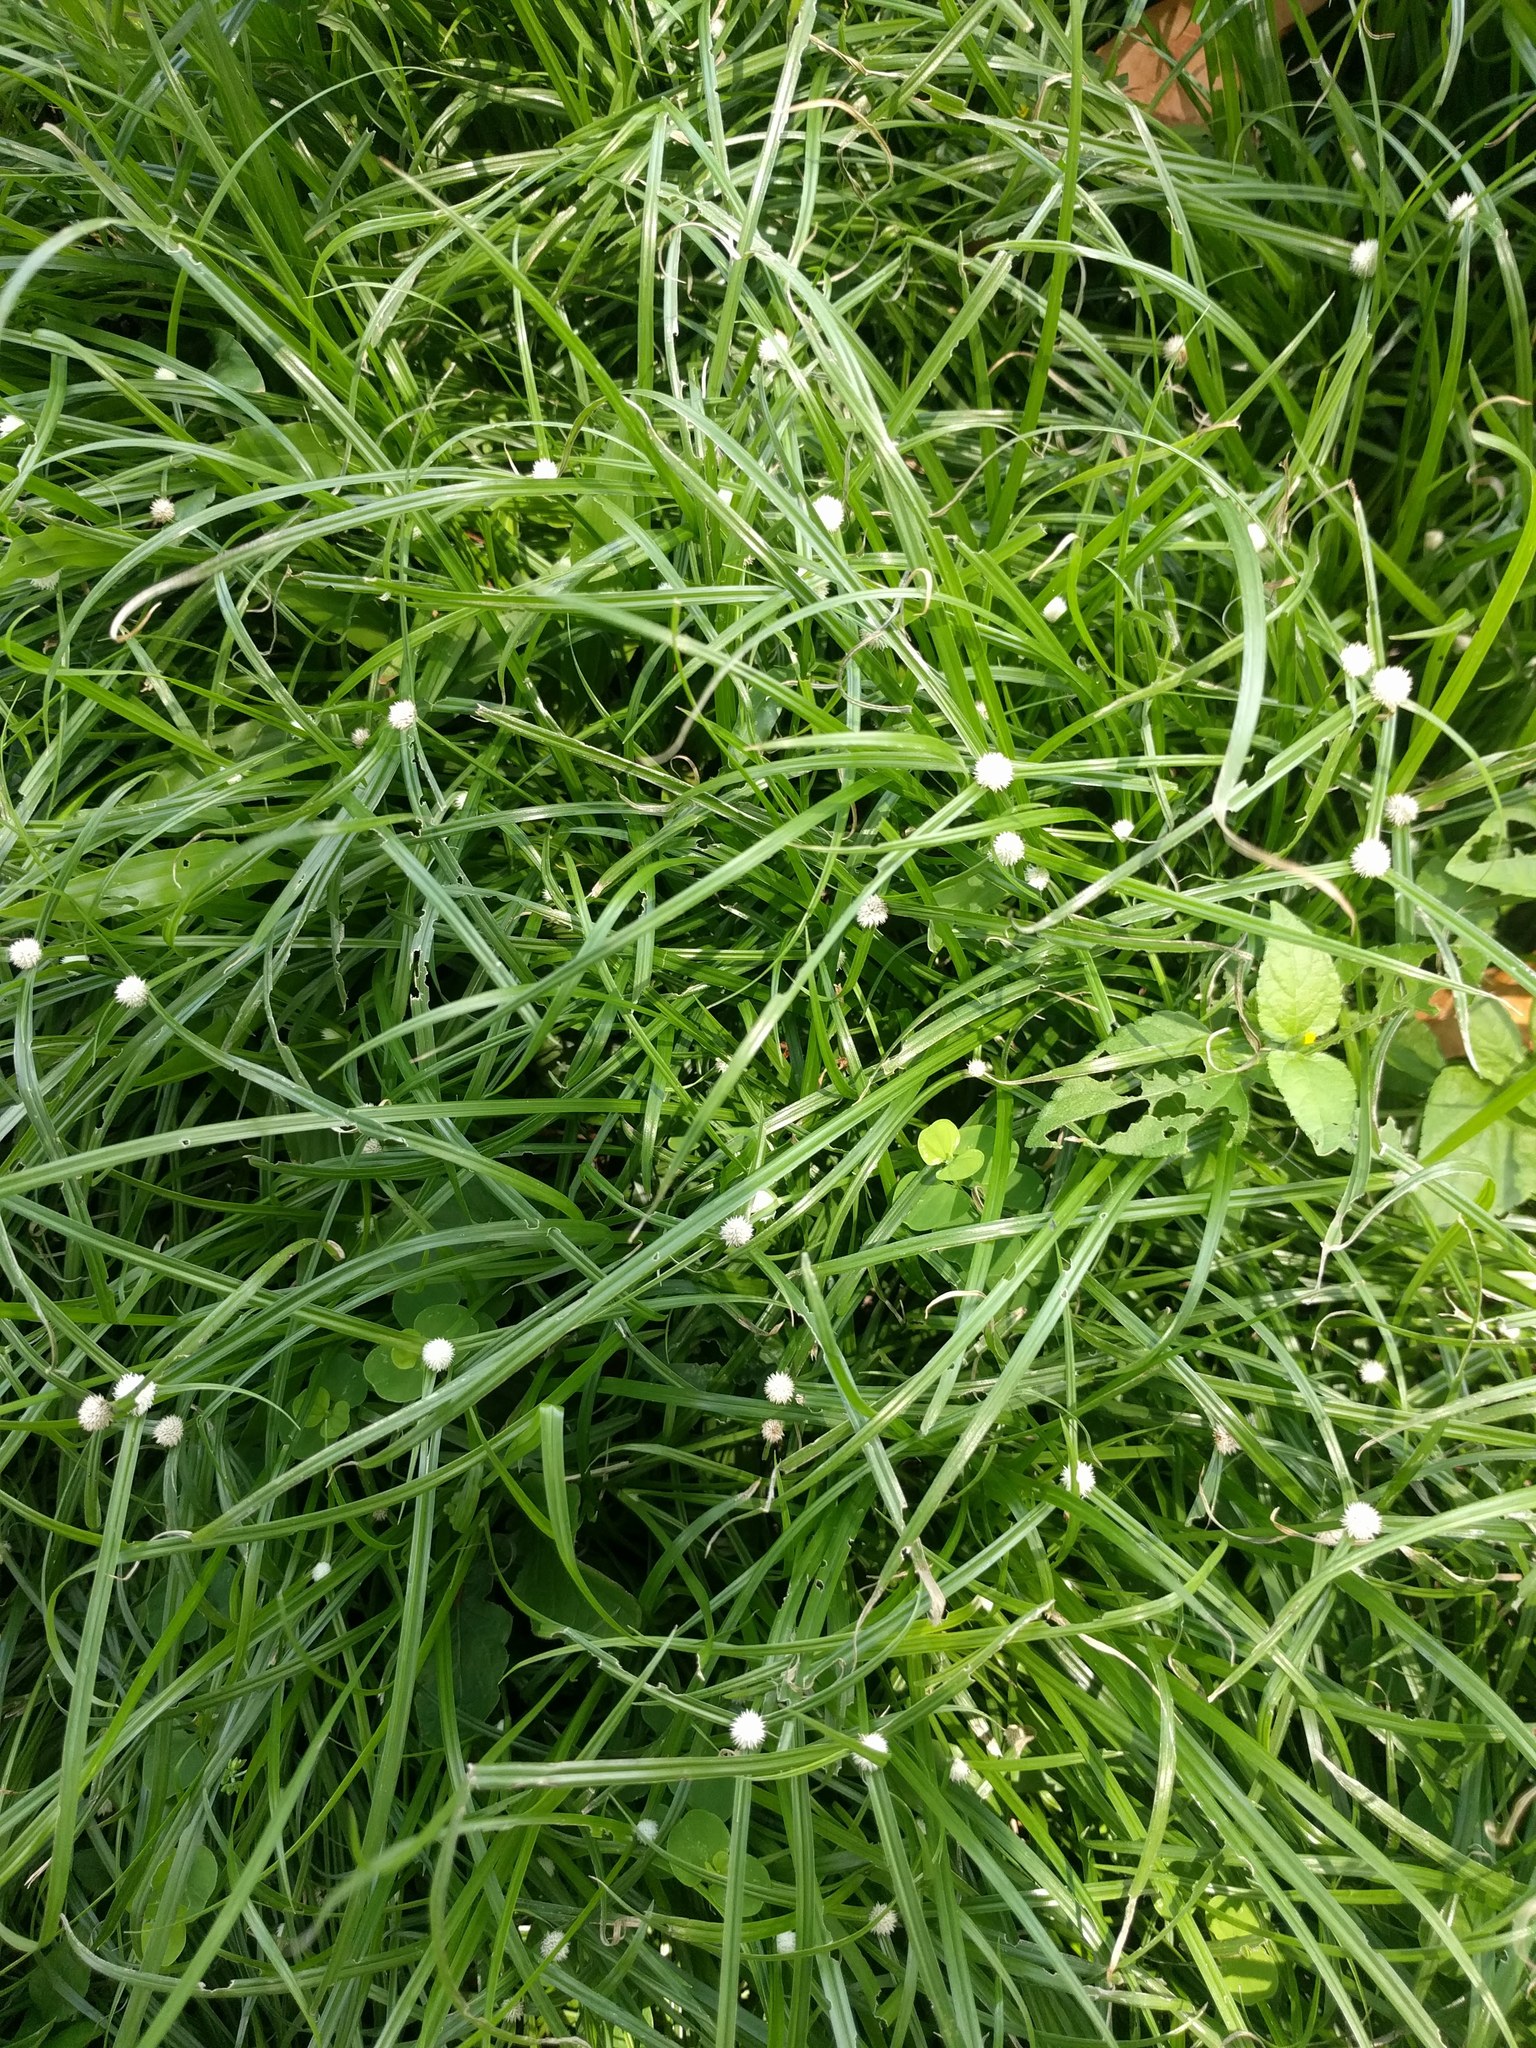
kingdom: Plantae
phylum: Tracheophyta
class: Liliopsida
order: Poales
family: Cyperaceae
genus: Cyperus
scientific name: Cyperus mindorensis
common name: Flatsedge
